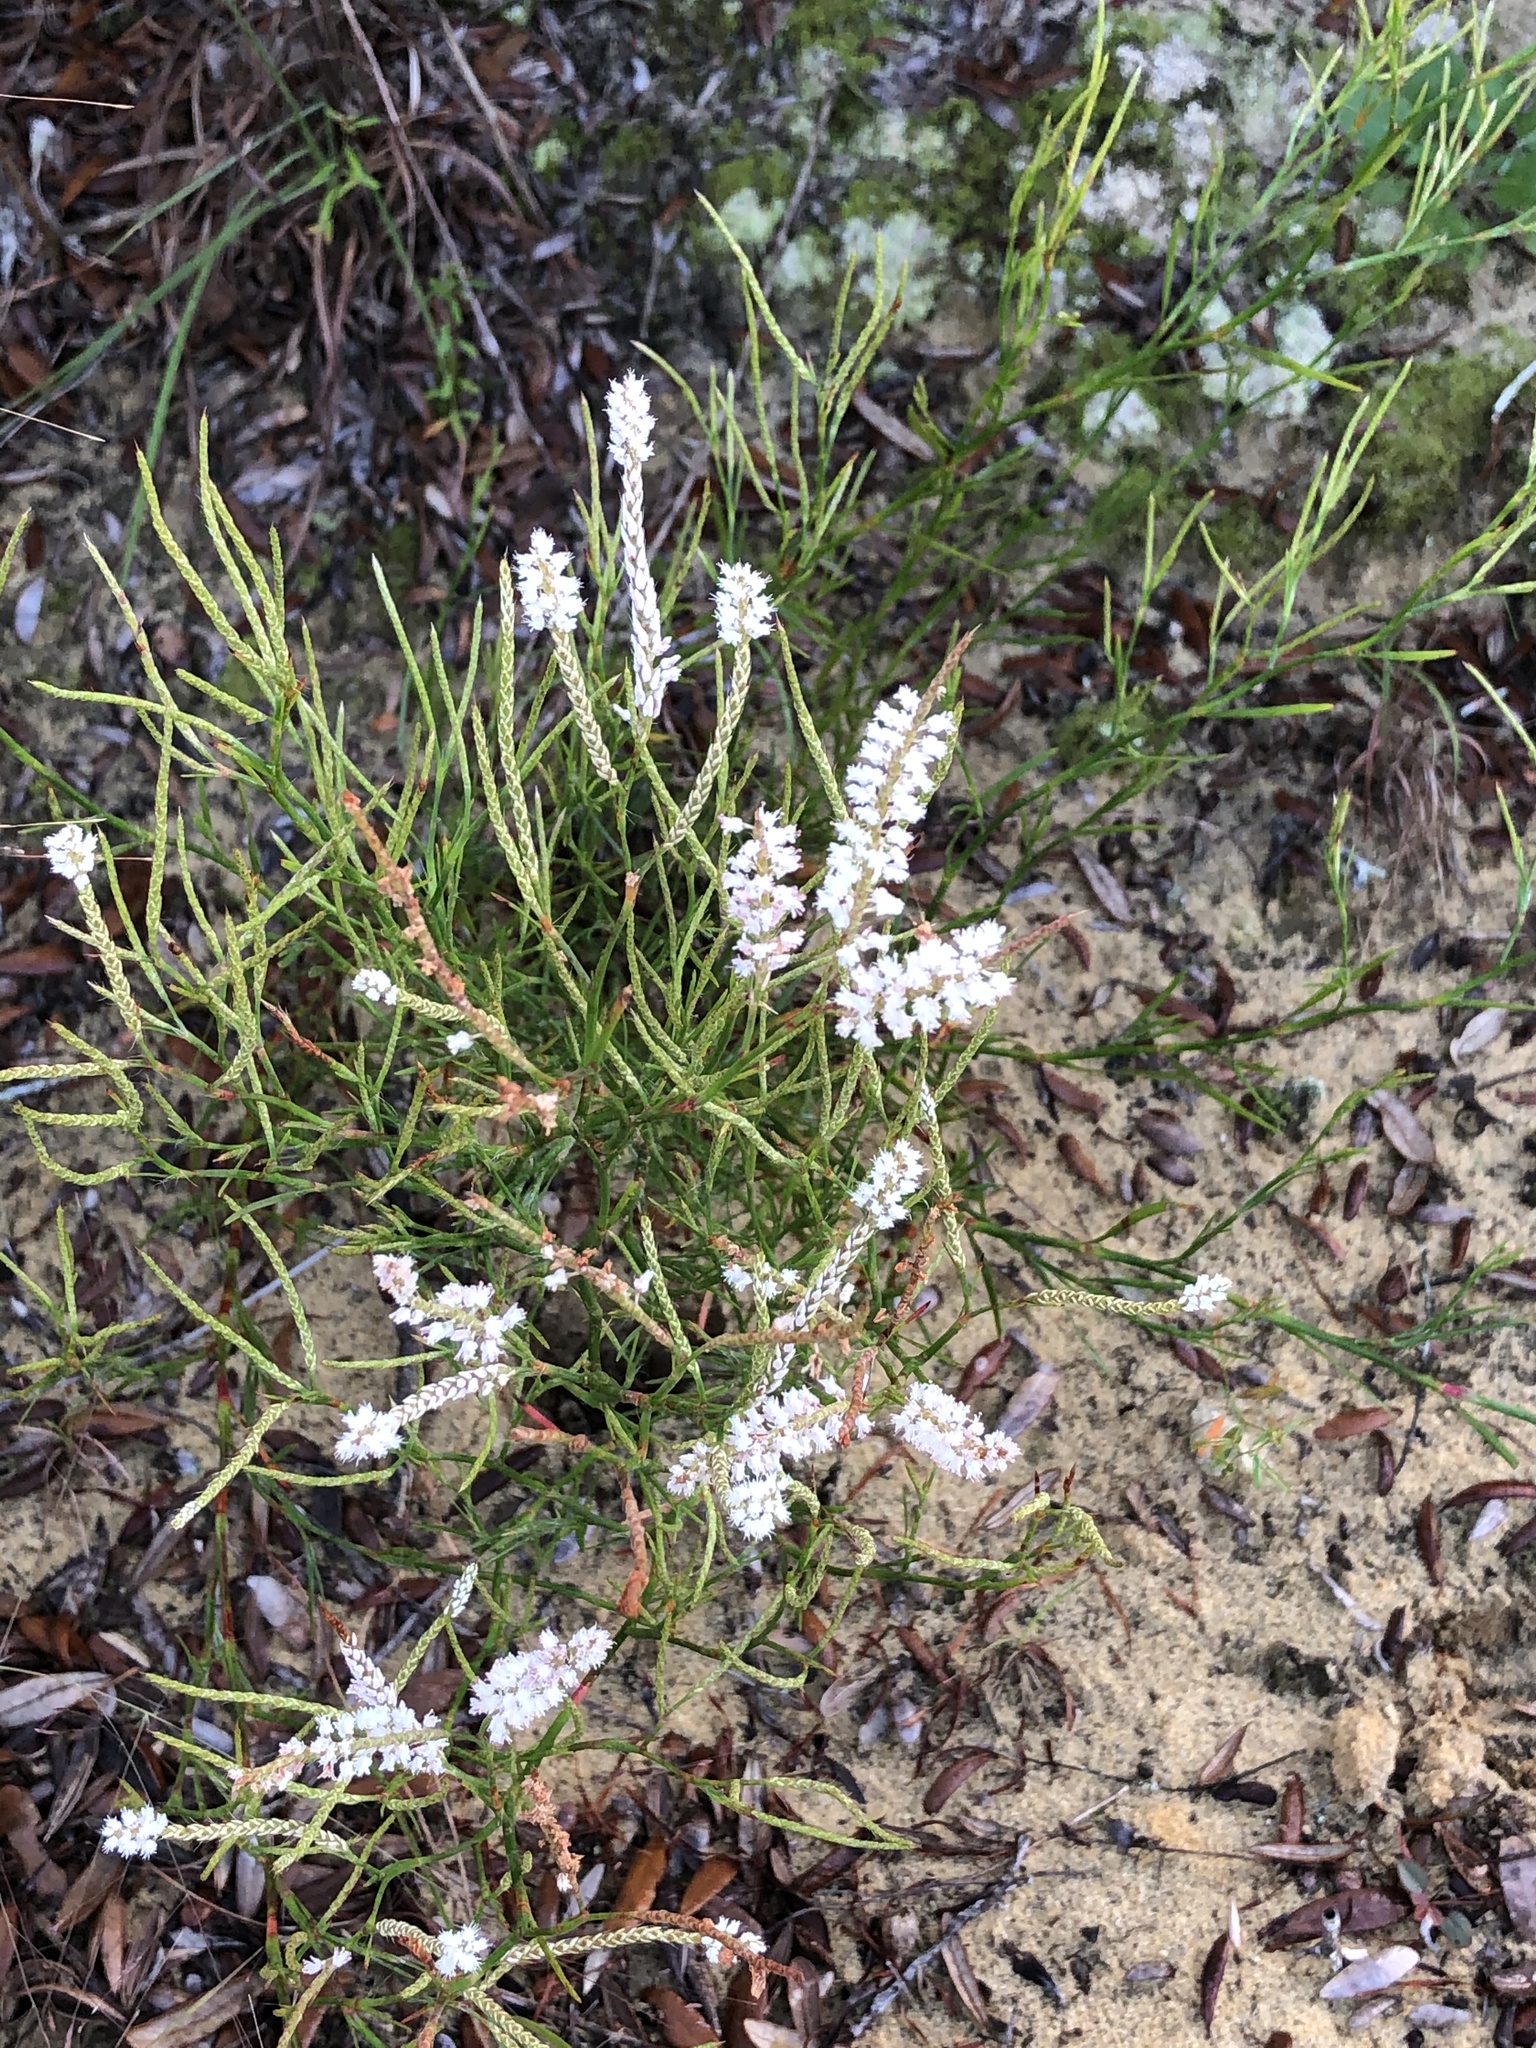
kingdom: Plantae
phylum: Tracheophyta
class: Magnoliopsida
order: Caryophyllales
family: Polygonaceae
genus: Polygonella
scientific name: Polygonella robusta
